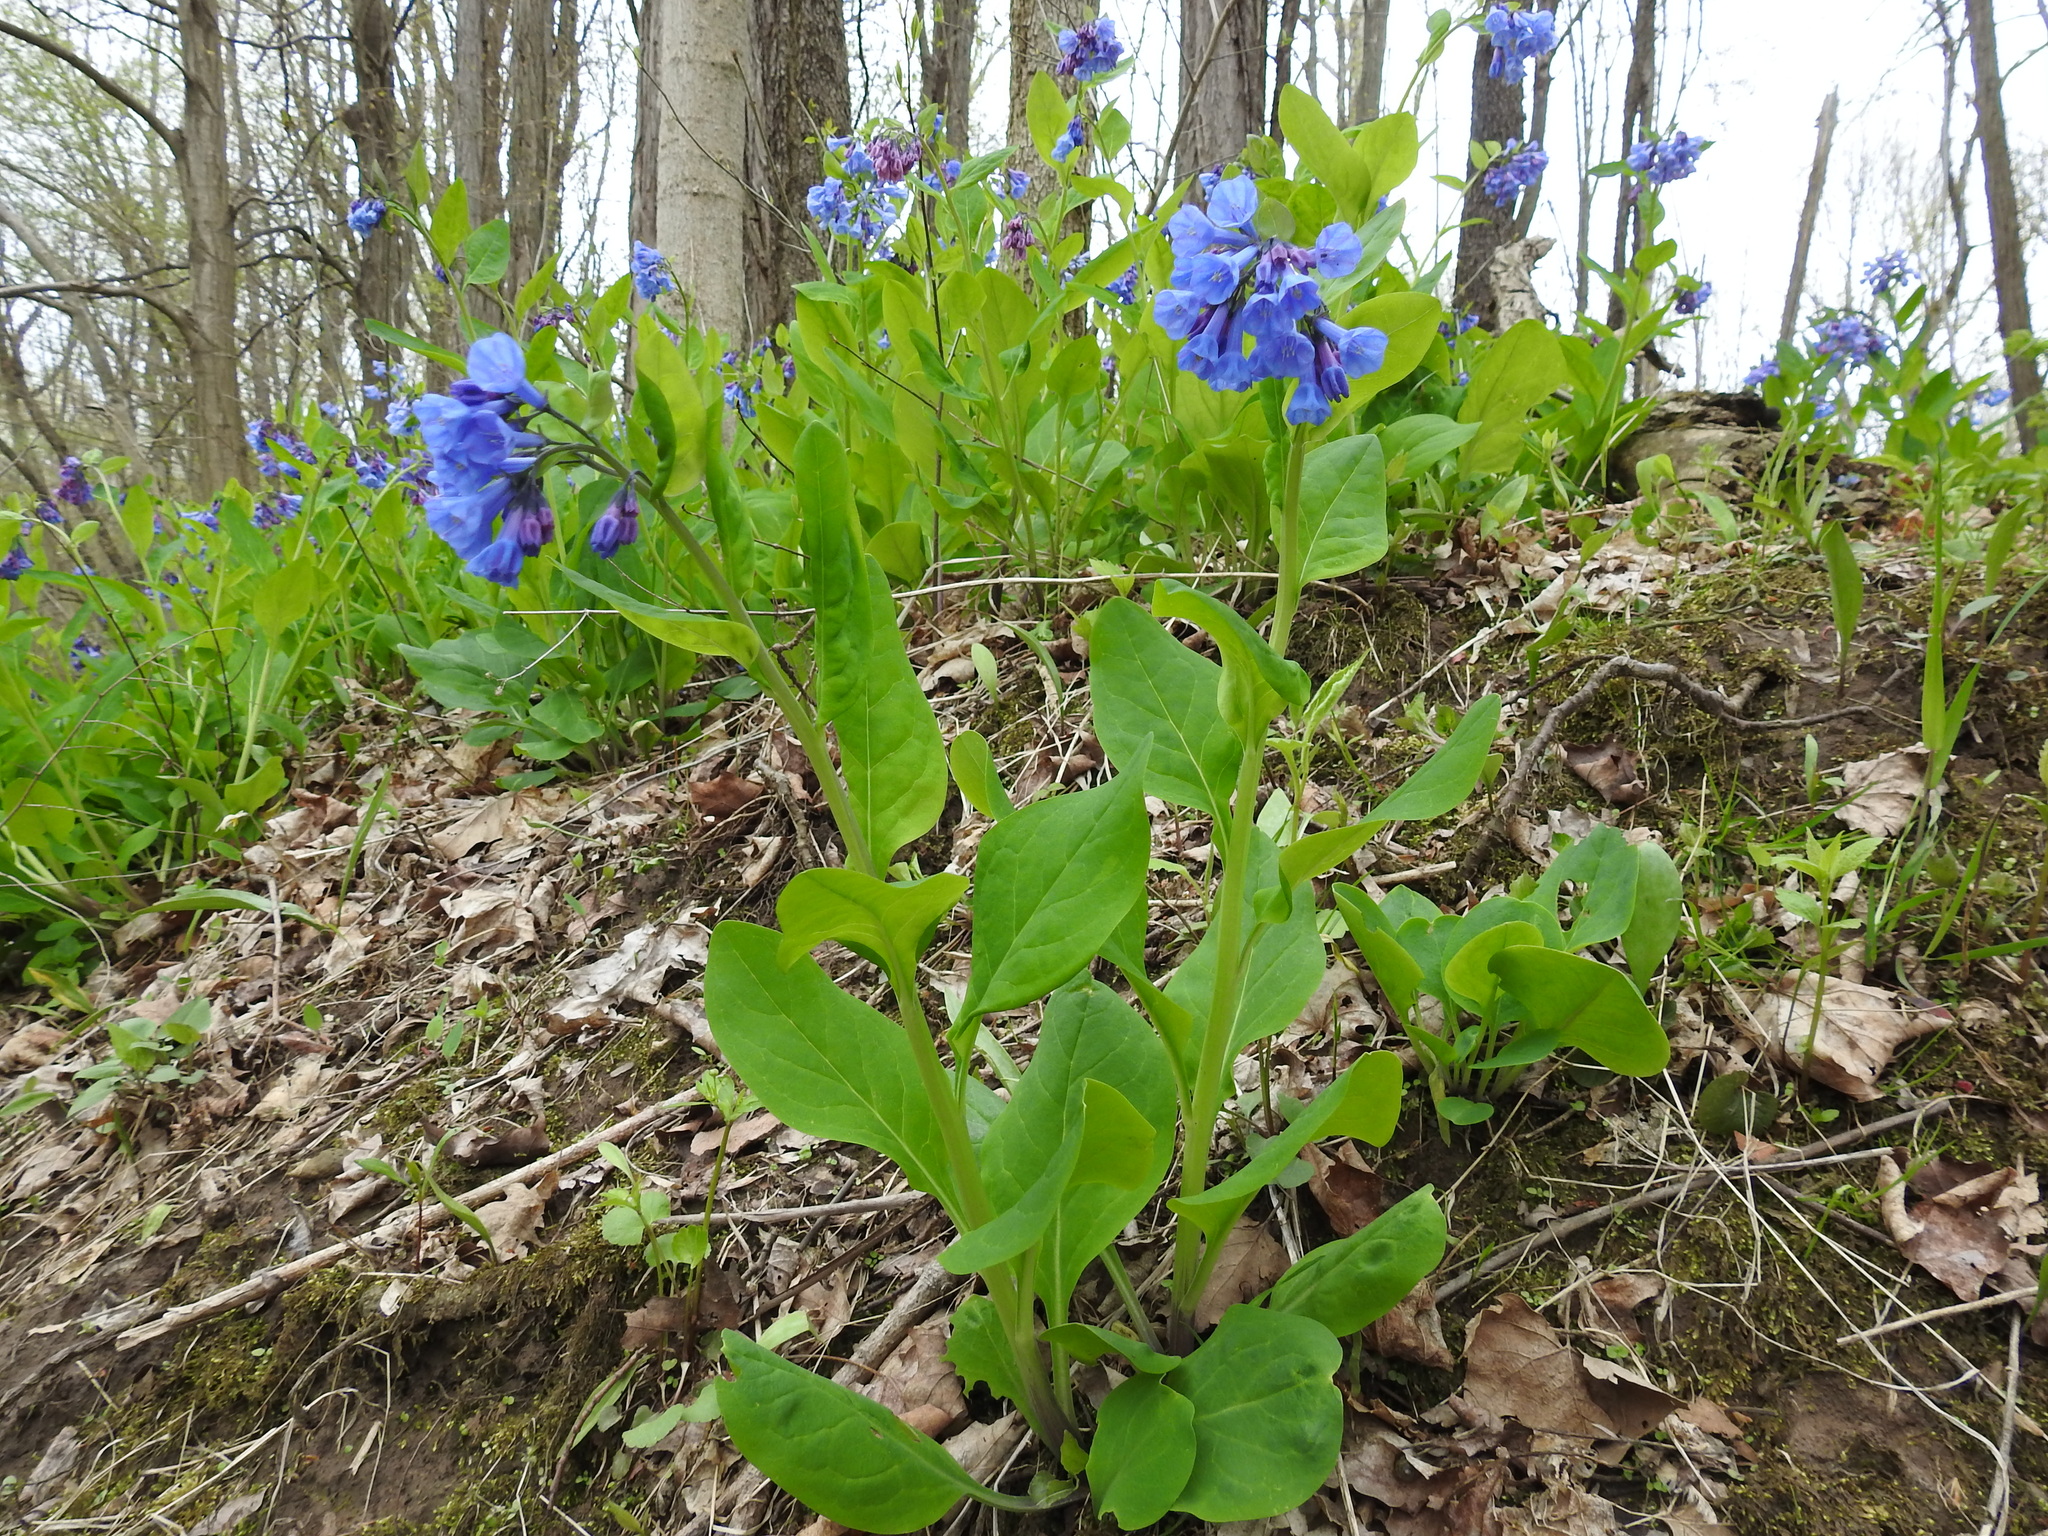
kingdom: Plantae
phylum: Tracheophyta
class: Magnoliopsida
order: Boraginales
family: Boraginaceae
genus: Mertensia
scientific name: Mertensia virginica
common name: Virginia bluebells
